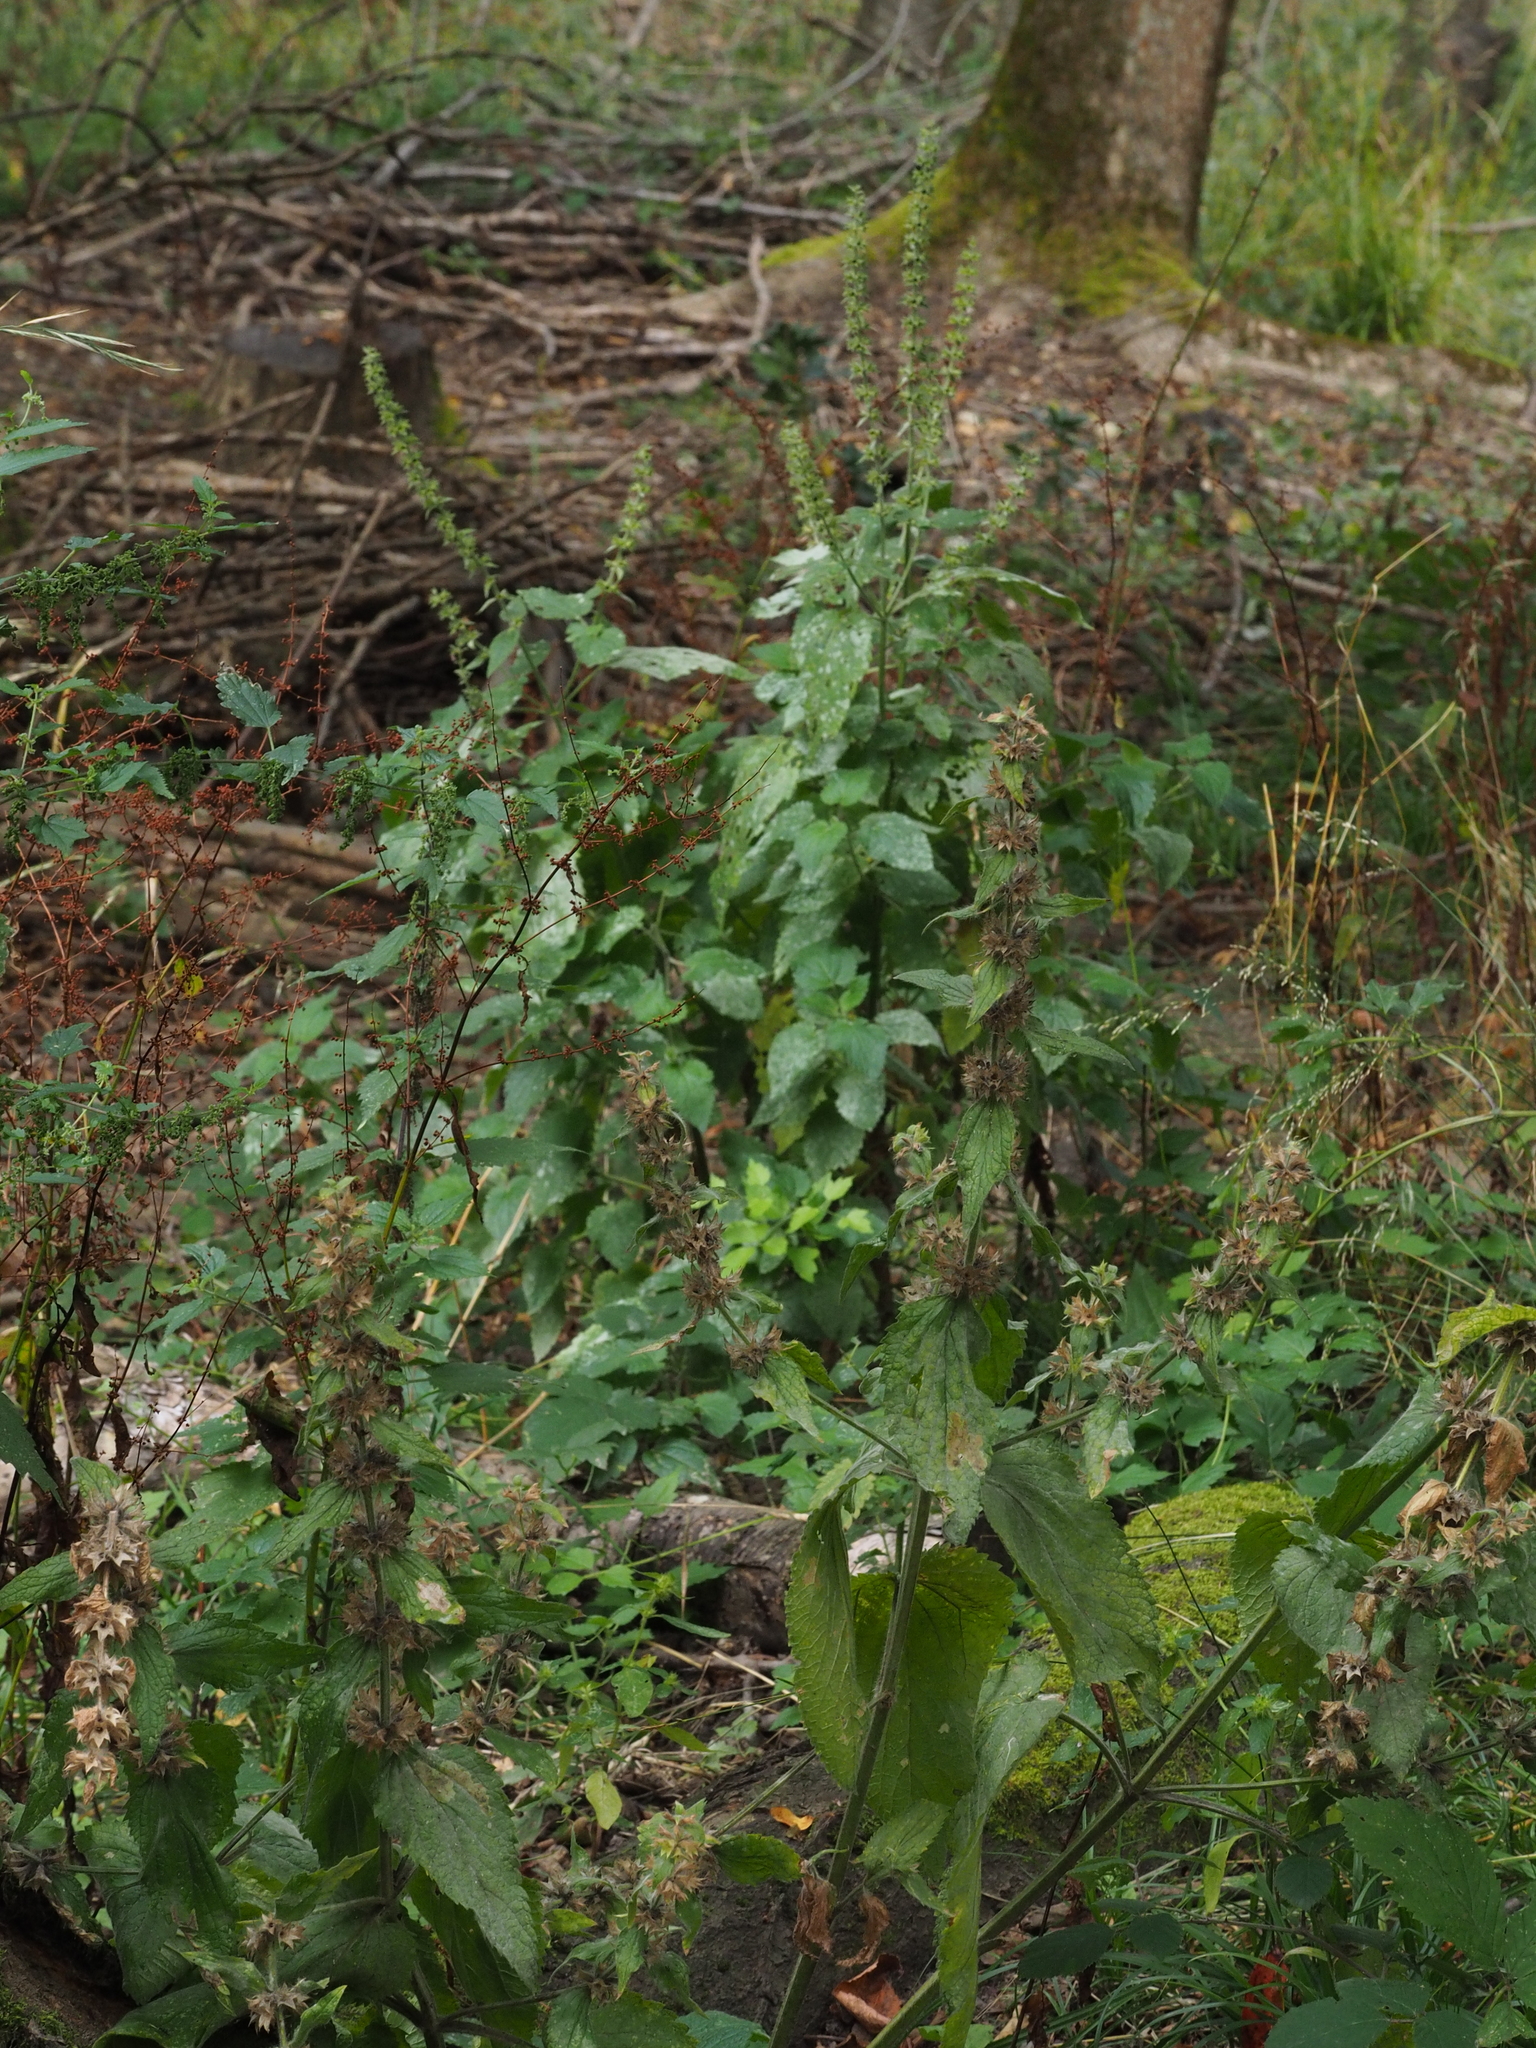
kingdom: Plantae
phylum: Tracheophyta
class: Magnoliopsida
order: Lamiales
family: Lamiaceae
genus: Stachys
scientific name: Stachys sylvatica
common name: Hedge woundwort
